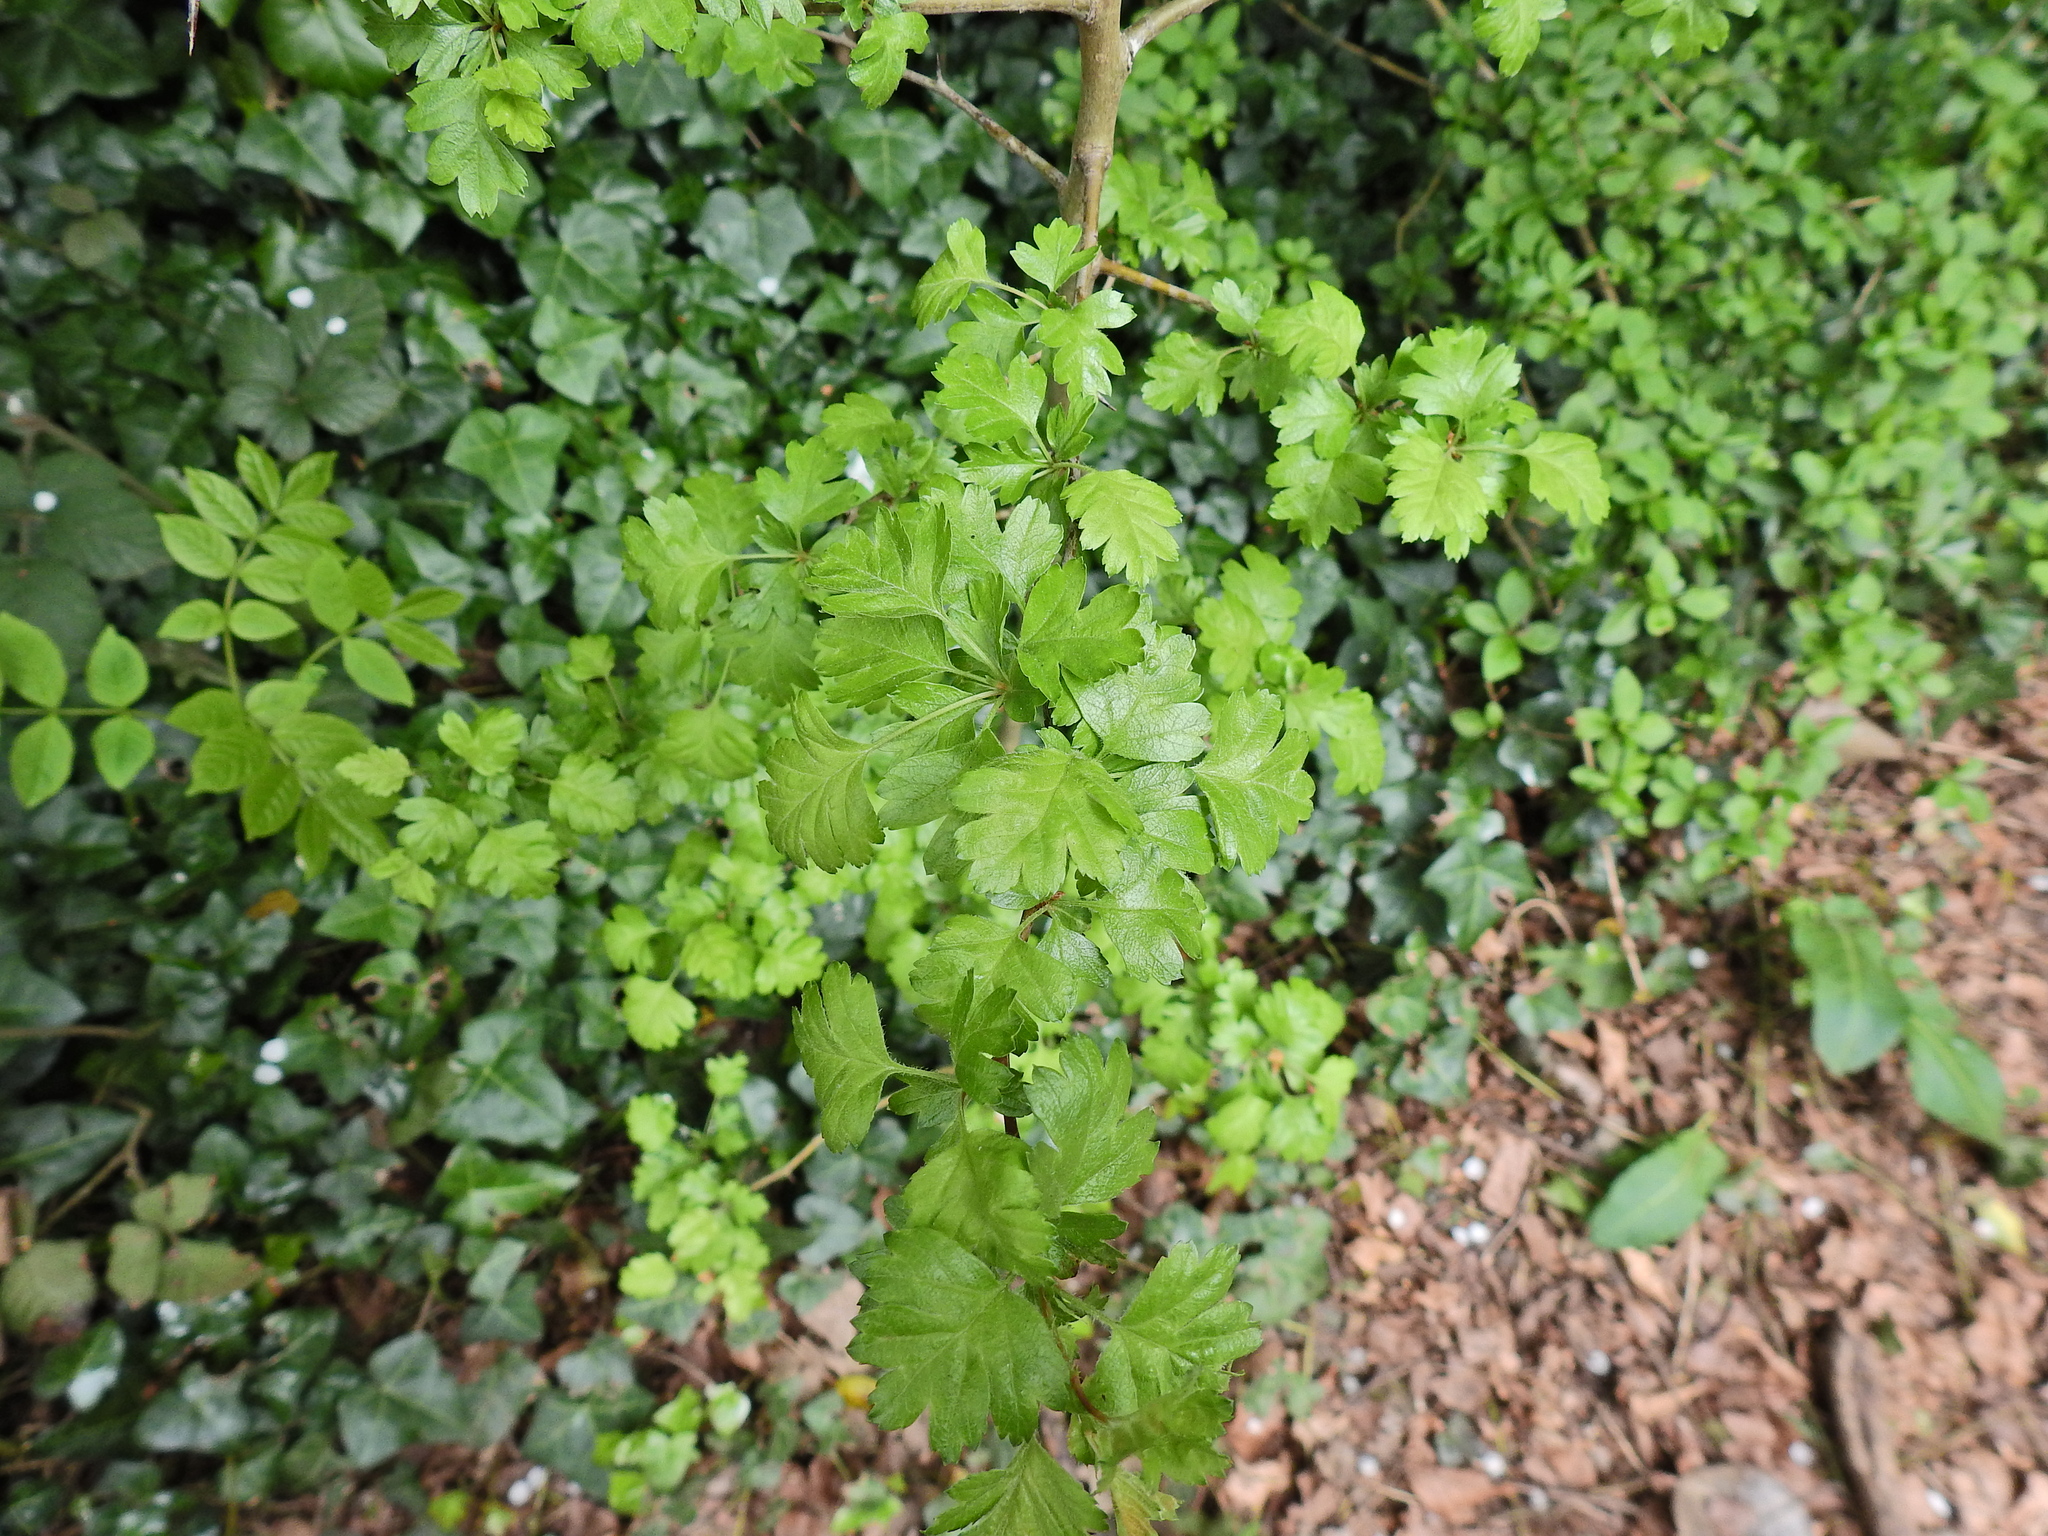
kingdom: Plantae
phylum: Tracheophyta
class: Magnoliopsida
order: Rosales
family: Rosaceae
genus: Crataegus
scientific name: Crataegus monogyna
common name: Hawthorn
